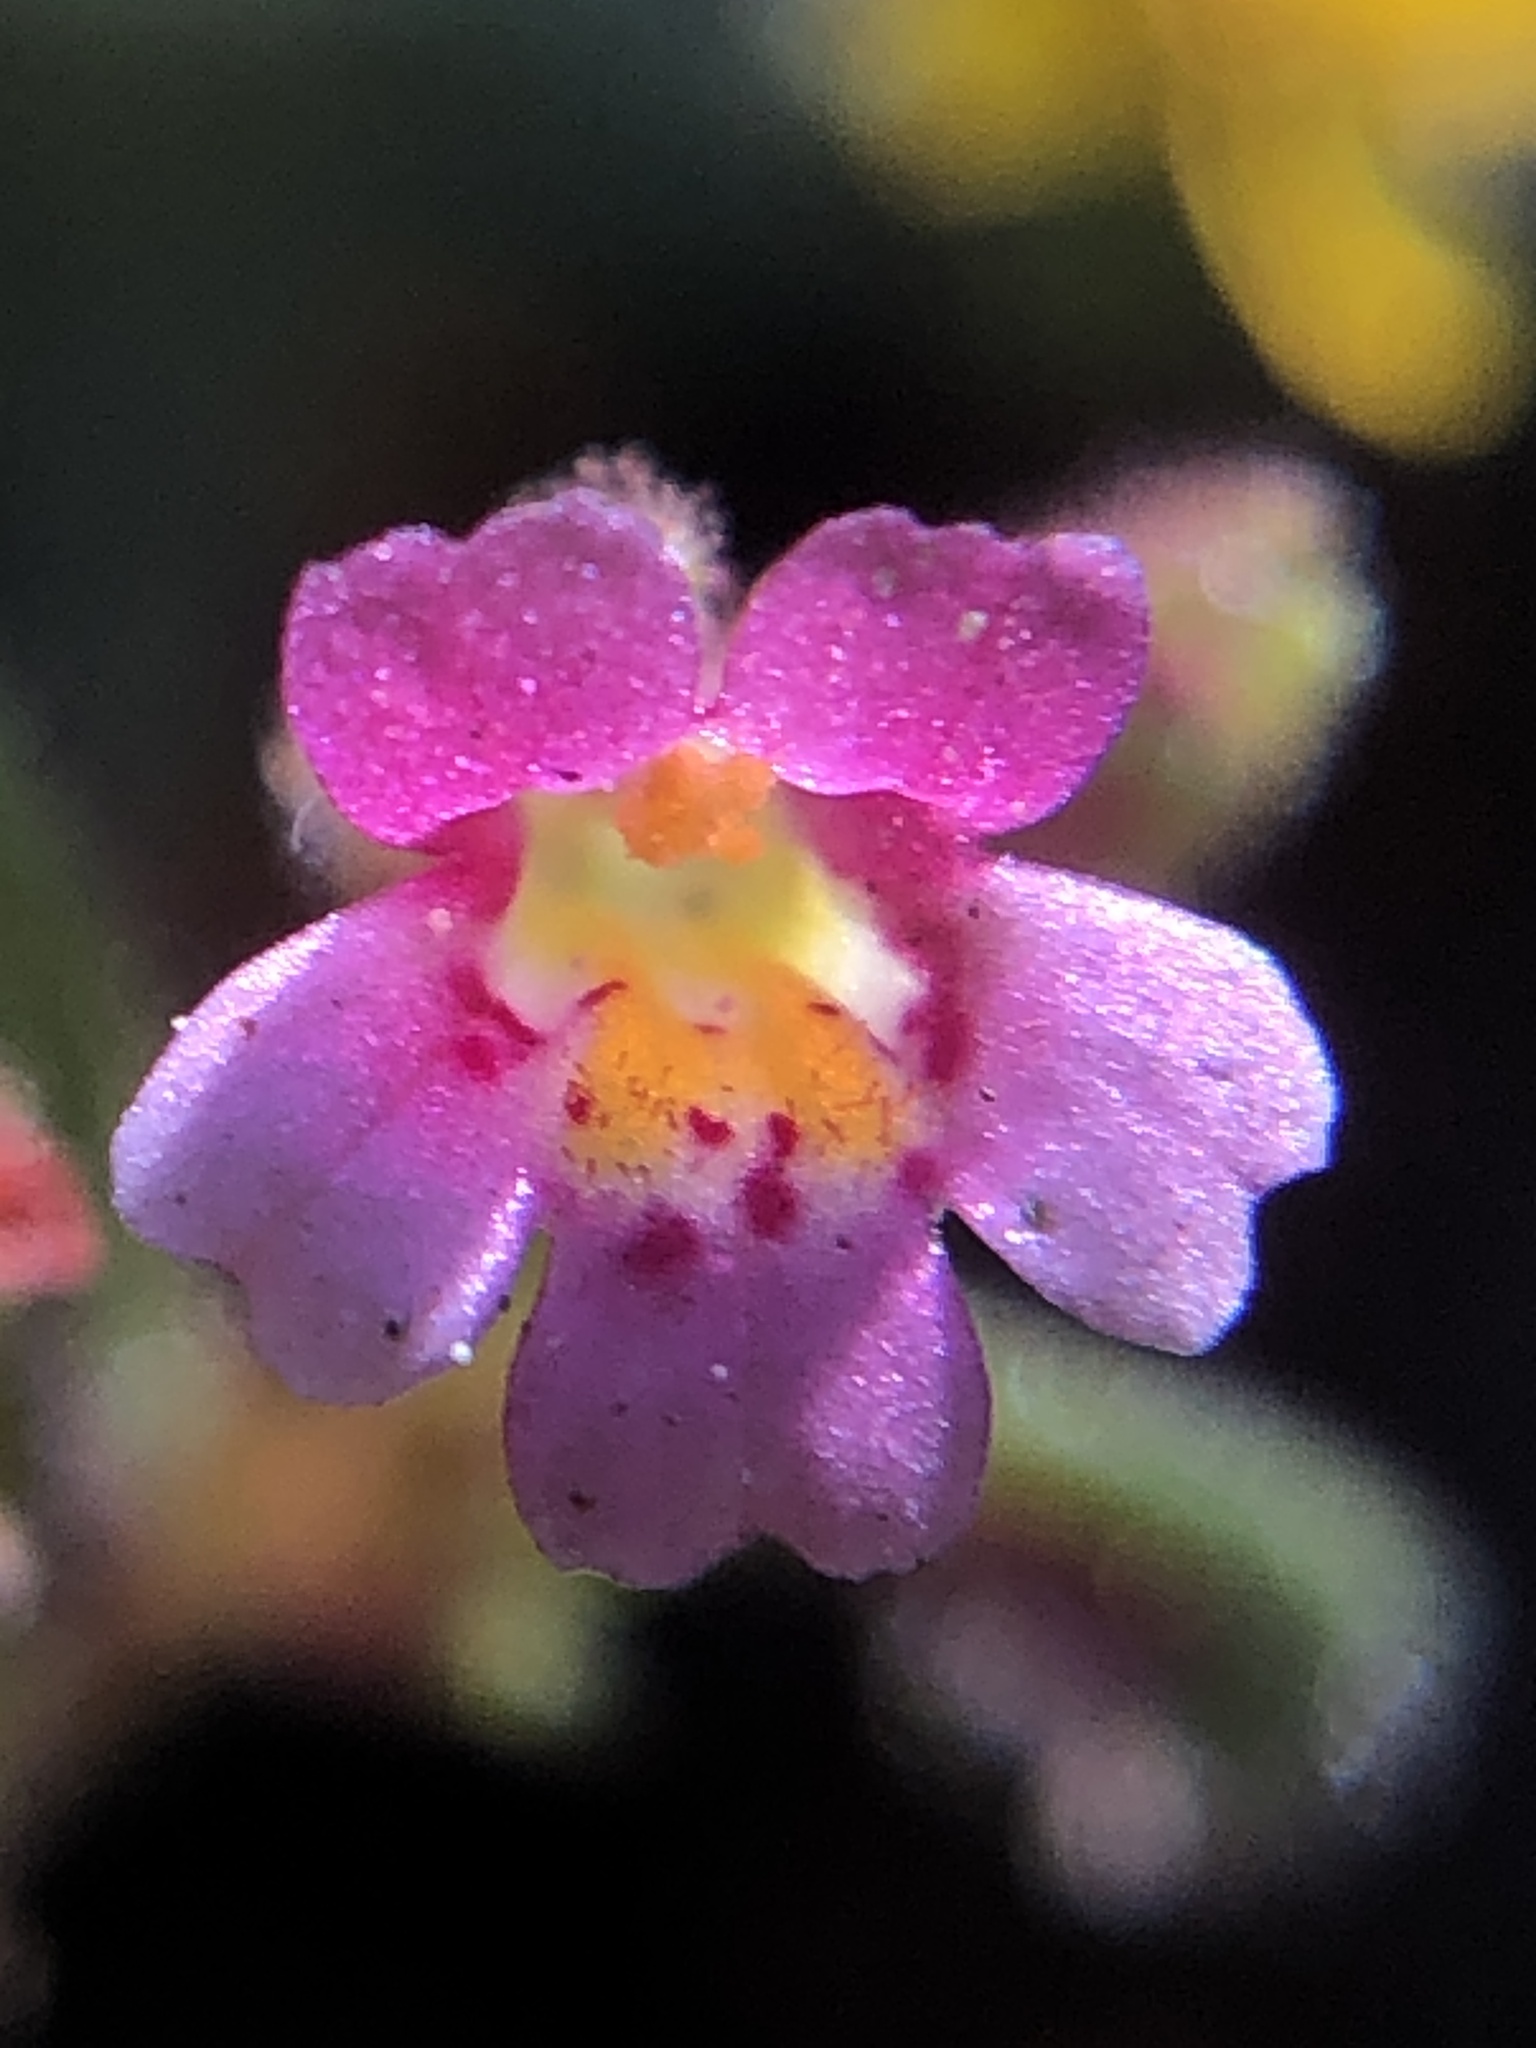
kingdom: Plantae
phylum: Tracheophyta
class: Magnoliopsida
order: Lamiales
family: Phrymaceae
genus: Erythranthe
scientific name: Erythranthe breweri
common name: Brewer's monkeyflower
